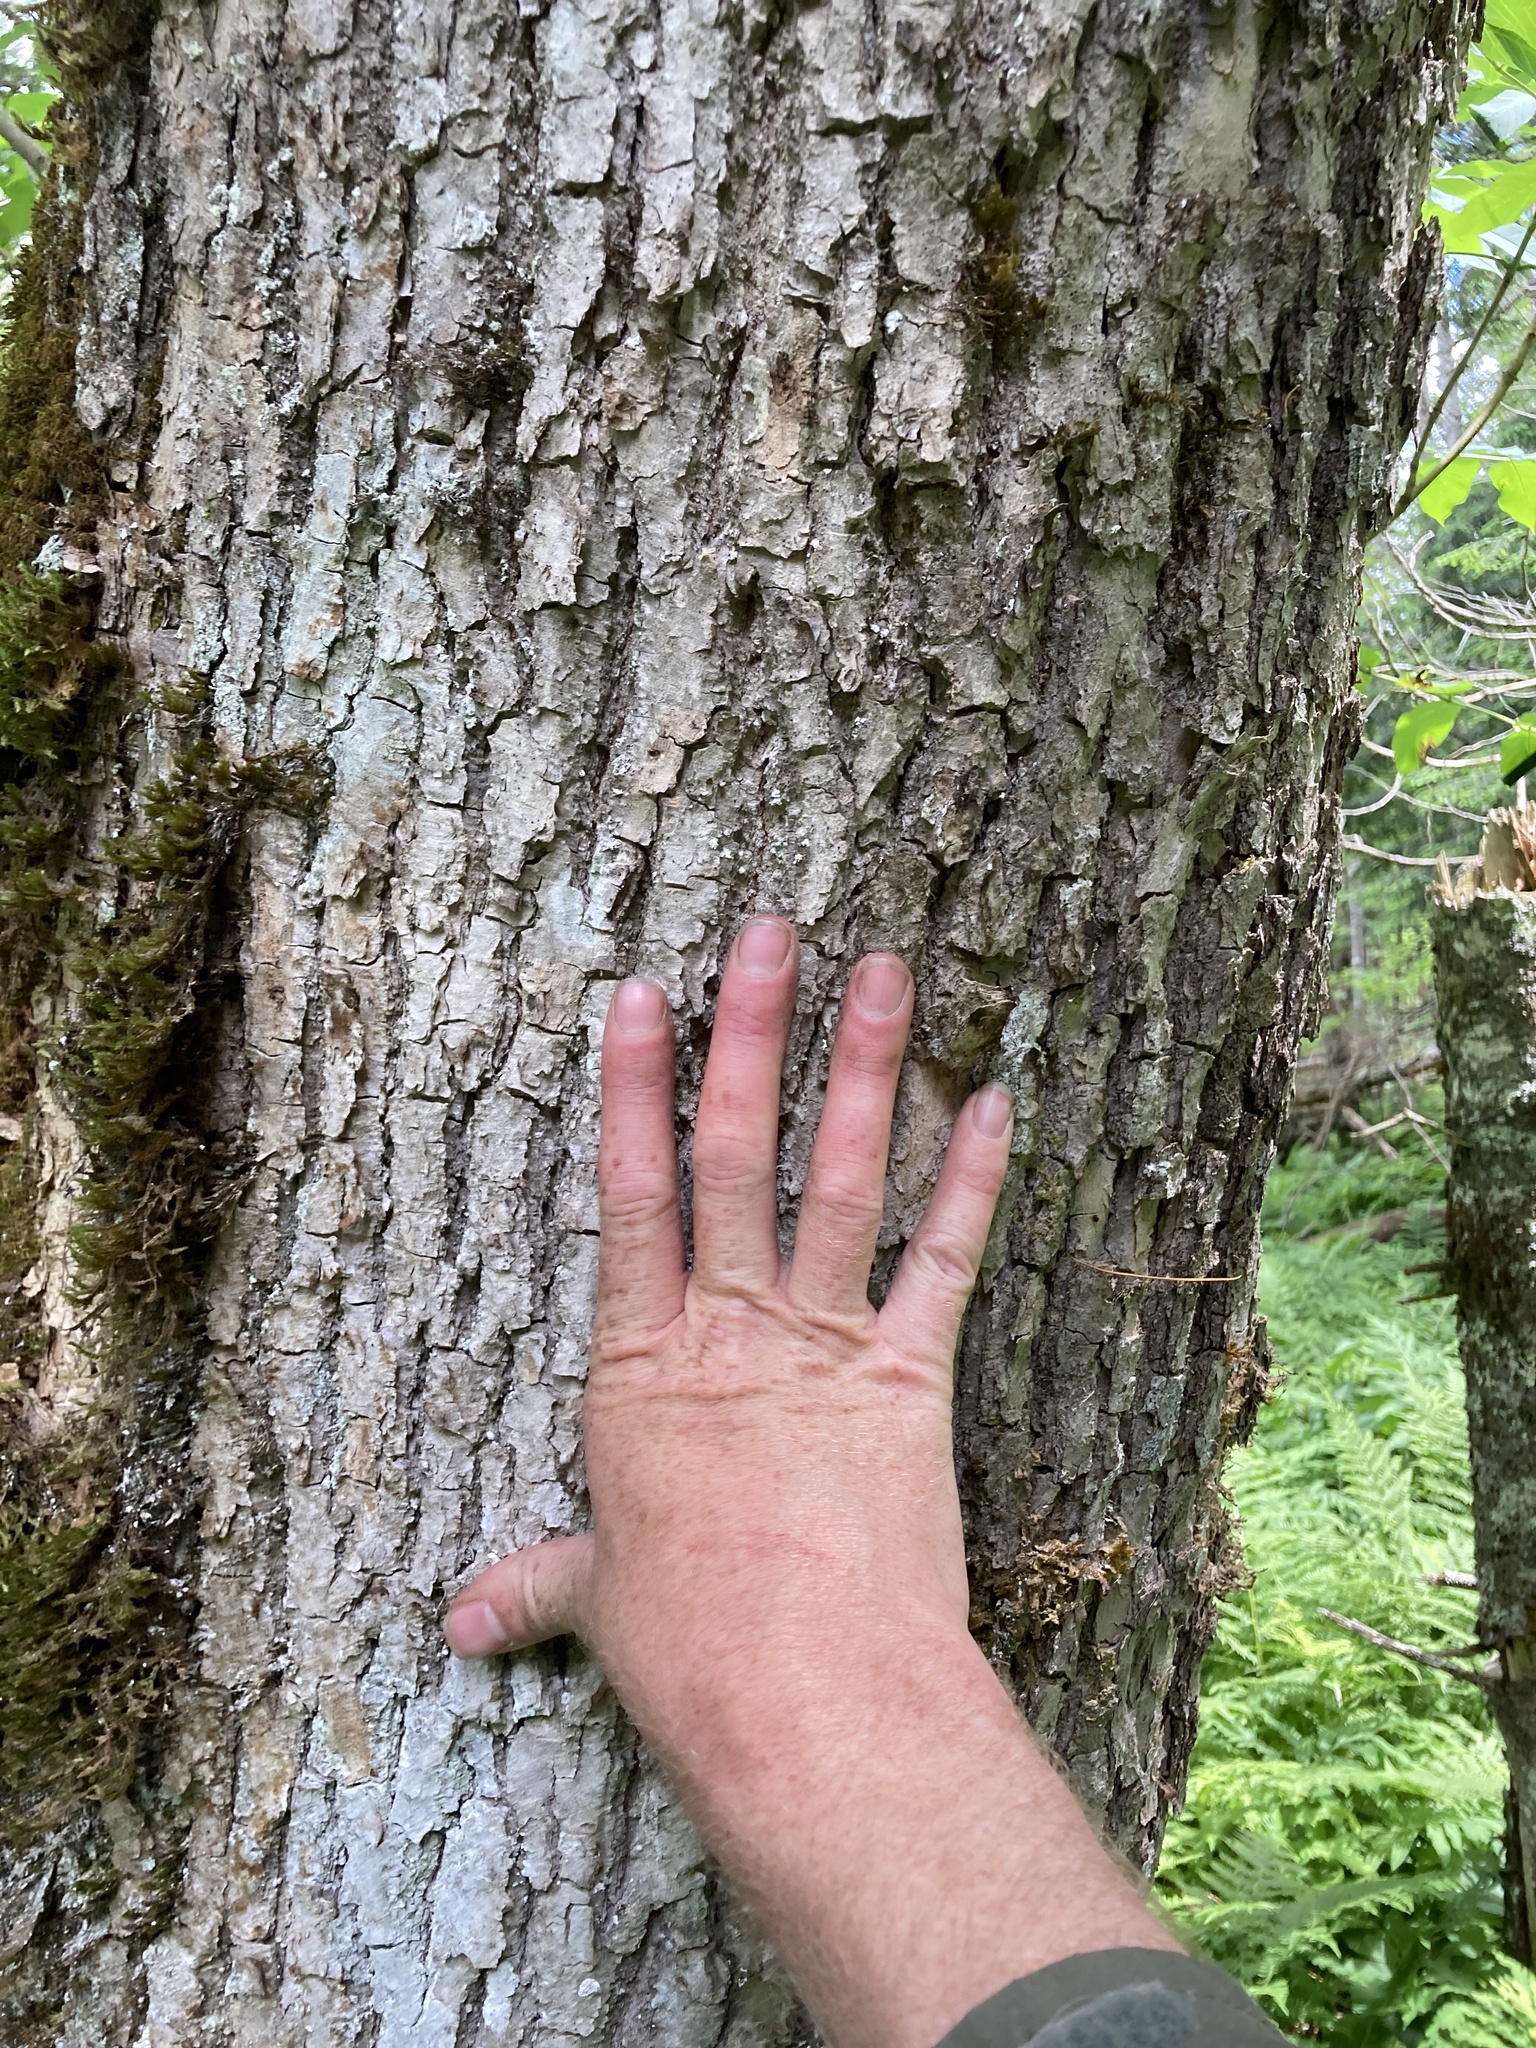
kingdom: Plantae
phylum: Tracheophyta
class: Magnoliopsida
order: Lamiales
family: Oleaceae
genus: Fraxinus
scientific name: Fraxinus nigra
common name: Black ash
